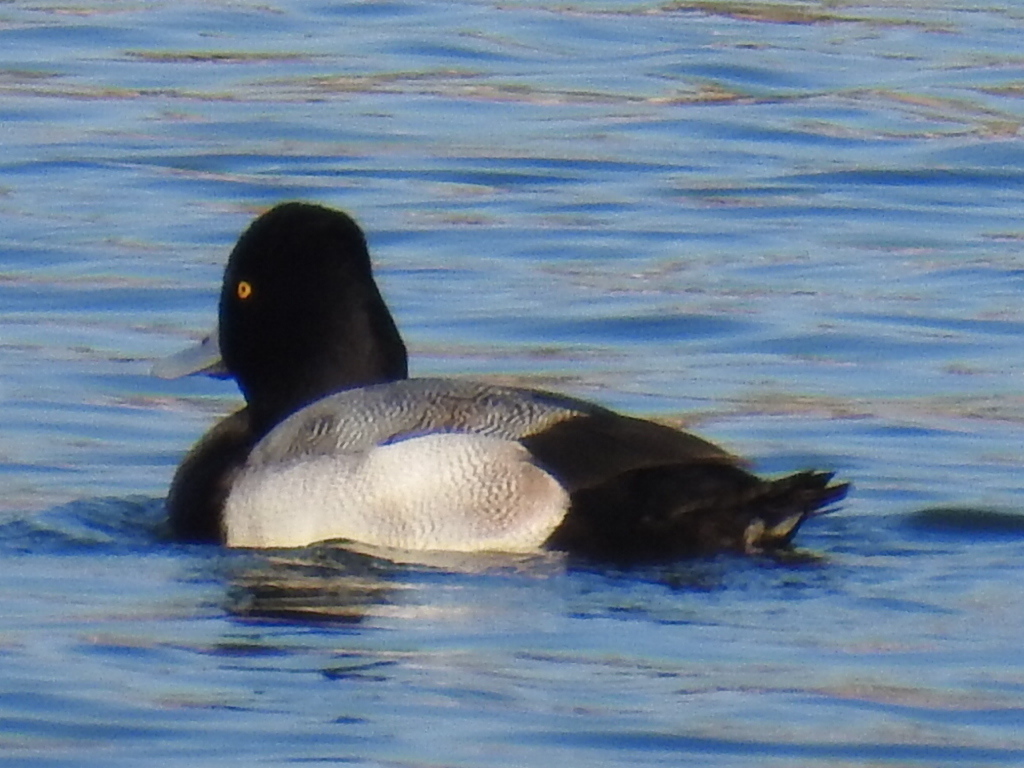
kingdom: Animalia
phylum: Chordata
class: Aves
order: Anseriformes
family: Anatidae
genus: Aythya
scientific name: Aythya affinis
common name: Lesser scaup
